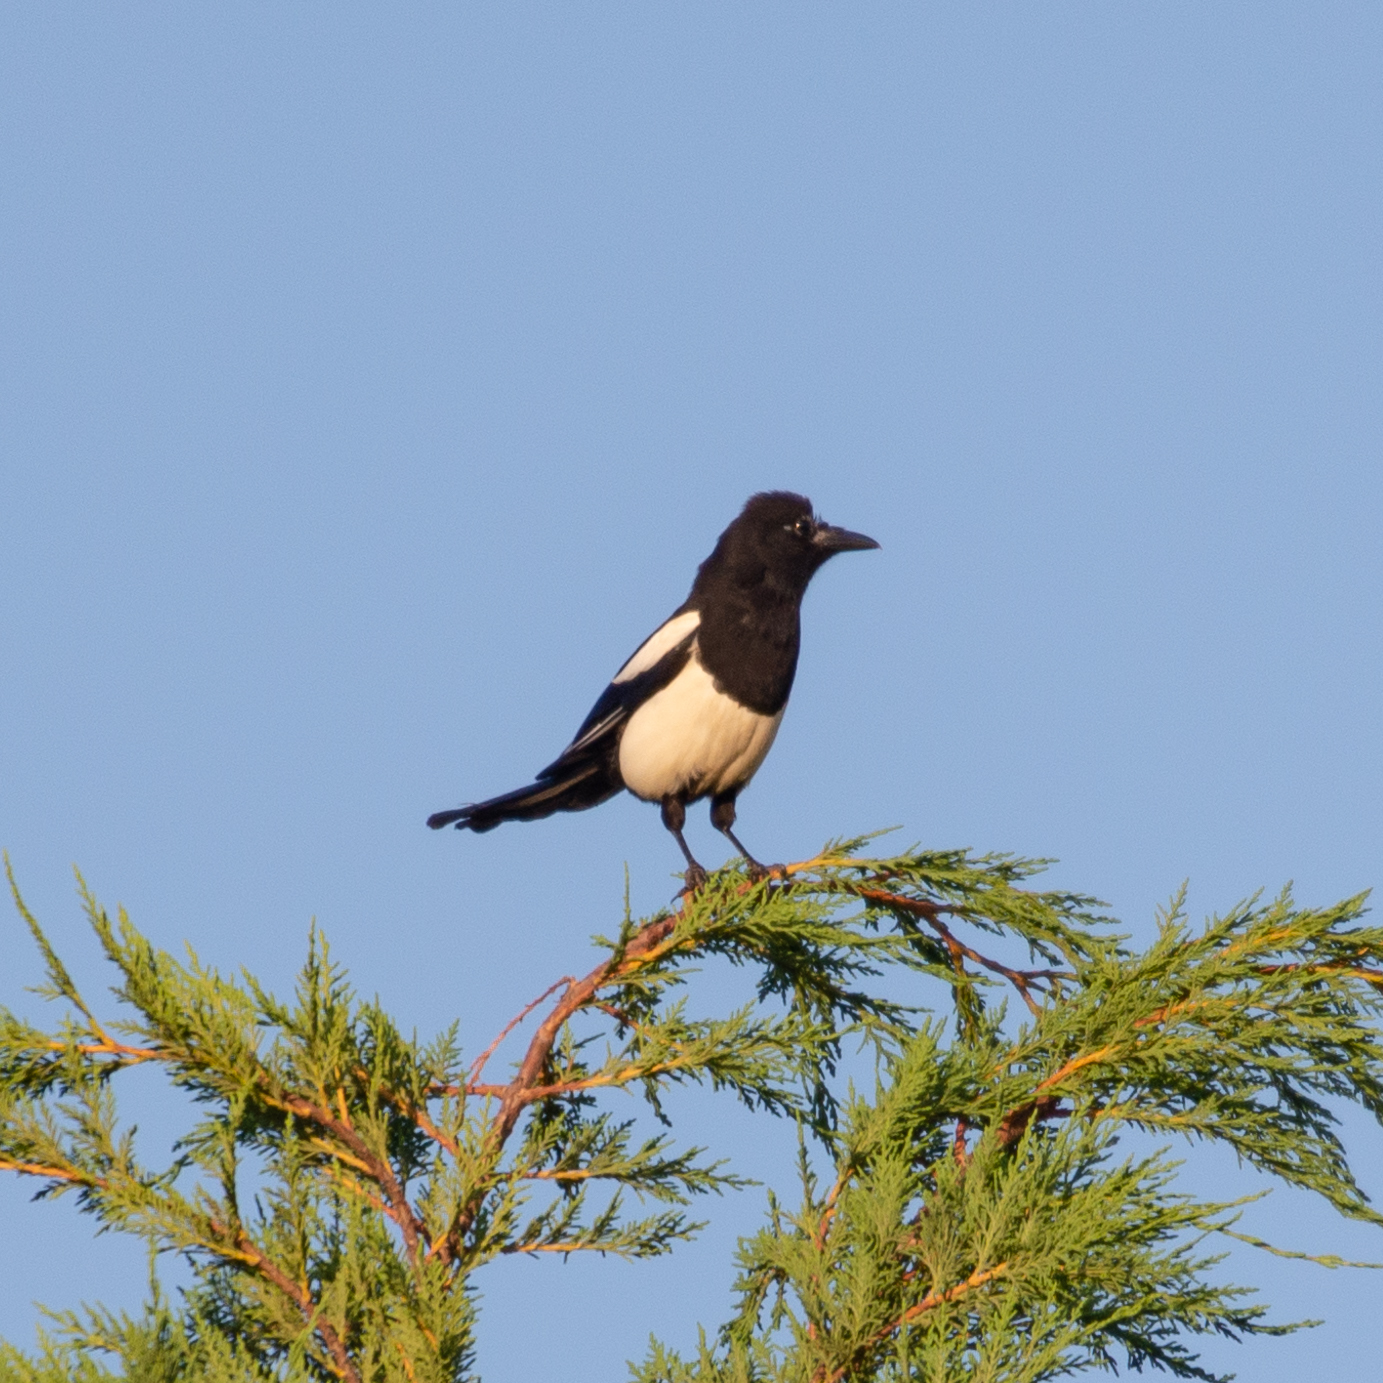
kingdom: Animalia
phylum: Chordata
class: Aves
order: Passeriformes
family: Corvidae
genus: Pica
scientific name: Pica pica
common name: Eurasian magpie
